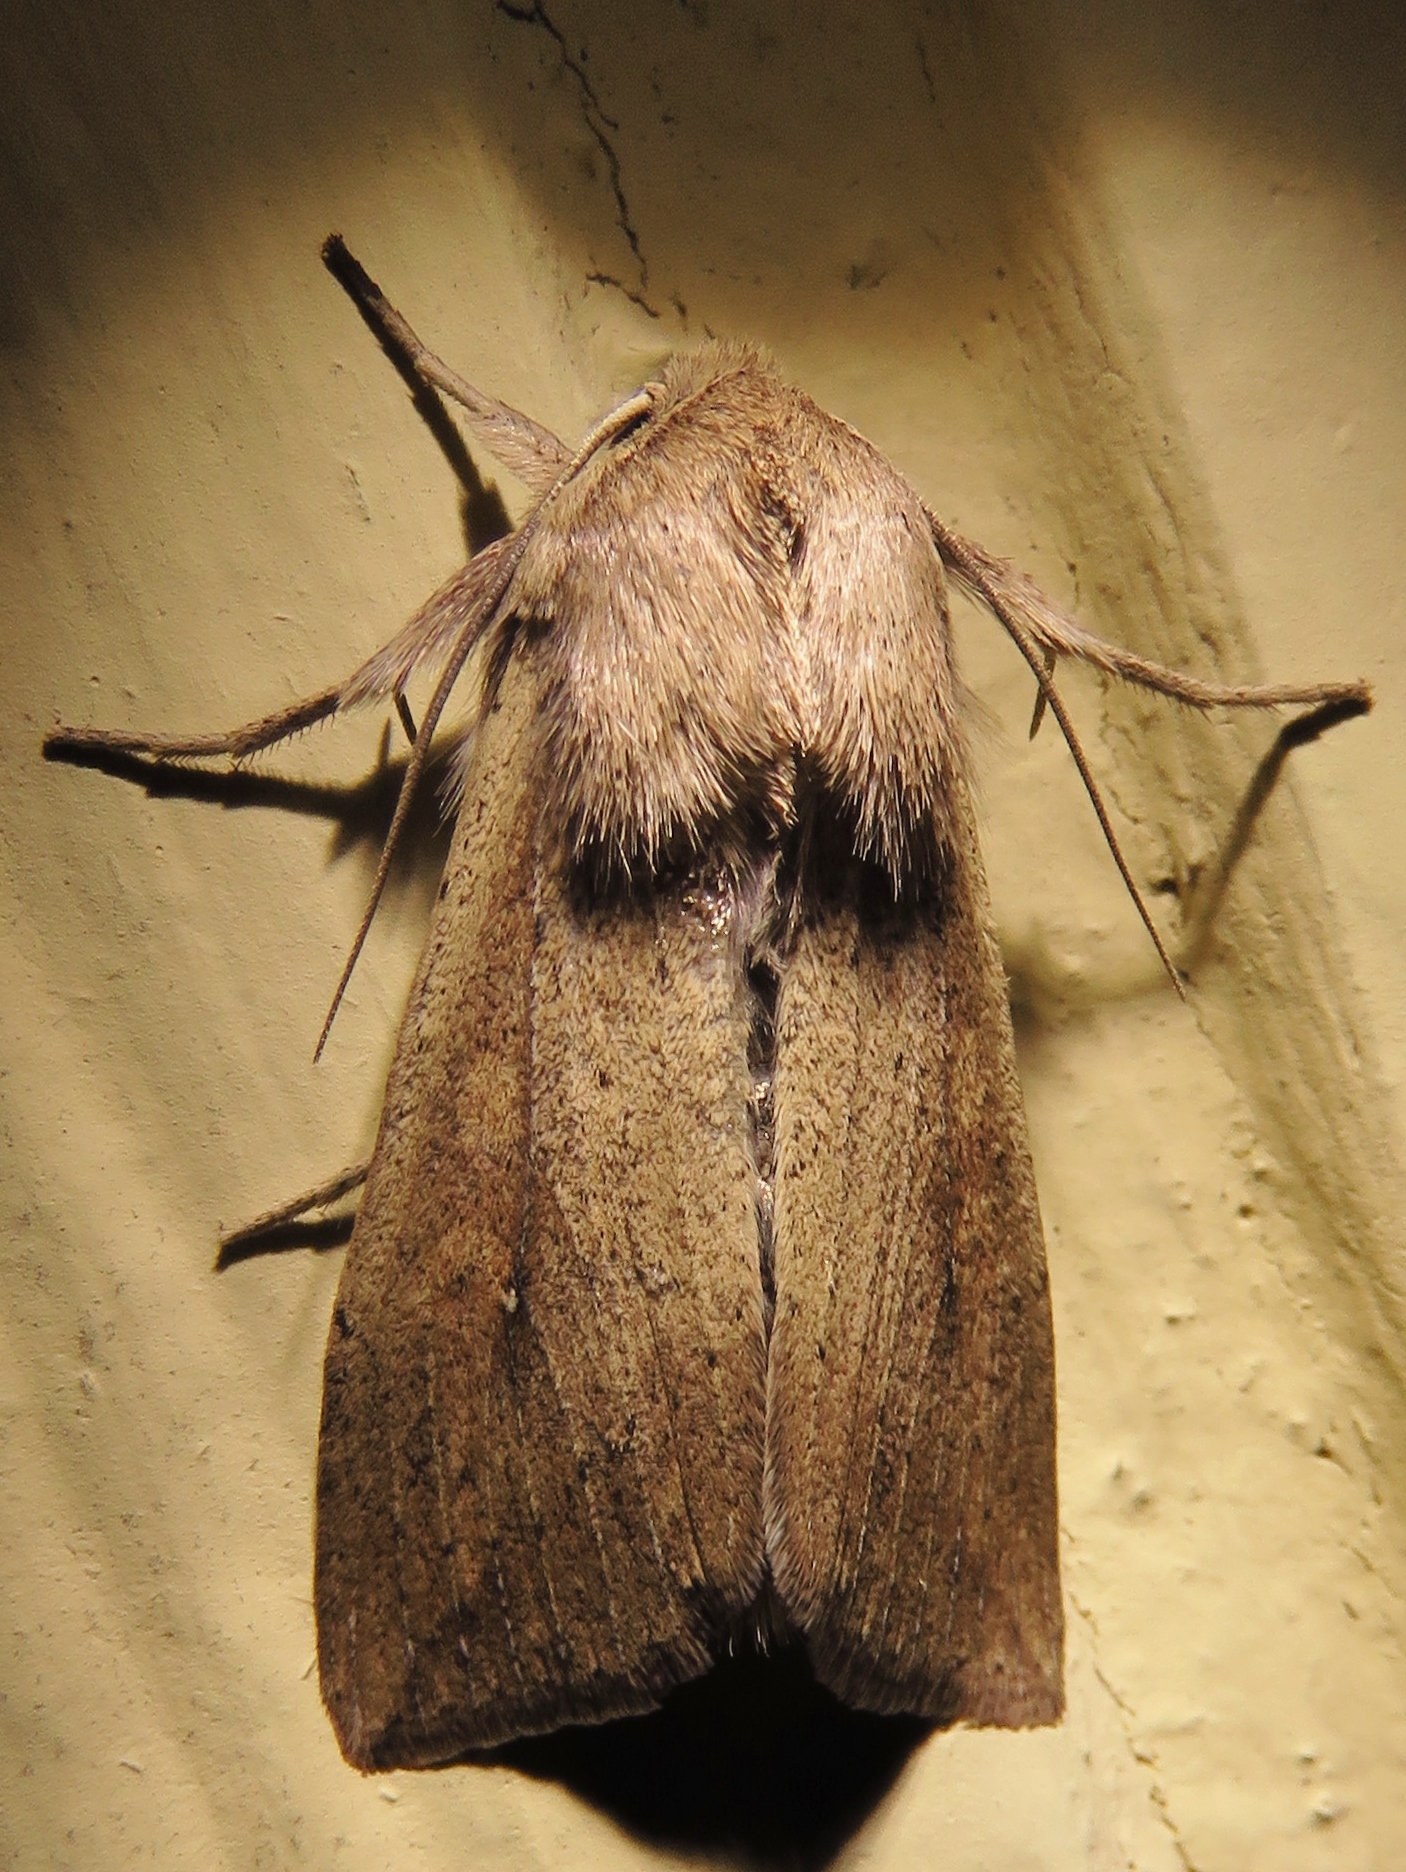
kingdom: Animalia
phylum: Arthropoda
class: Insecta
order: Lepidoptera
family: Noctuidae
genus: Mythimna
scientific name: Mythimna unipuncta
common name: White-speck
